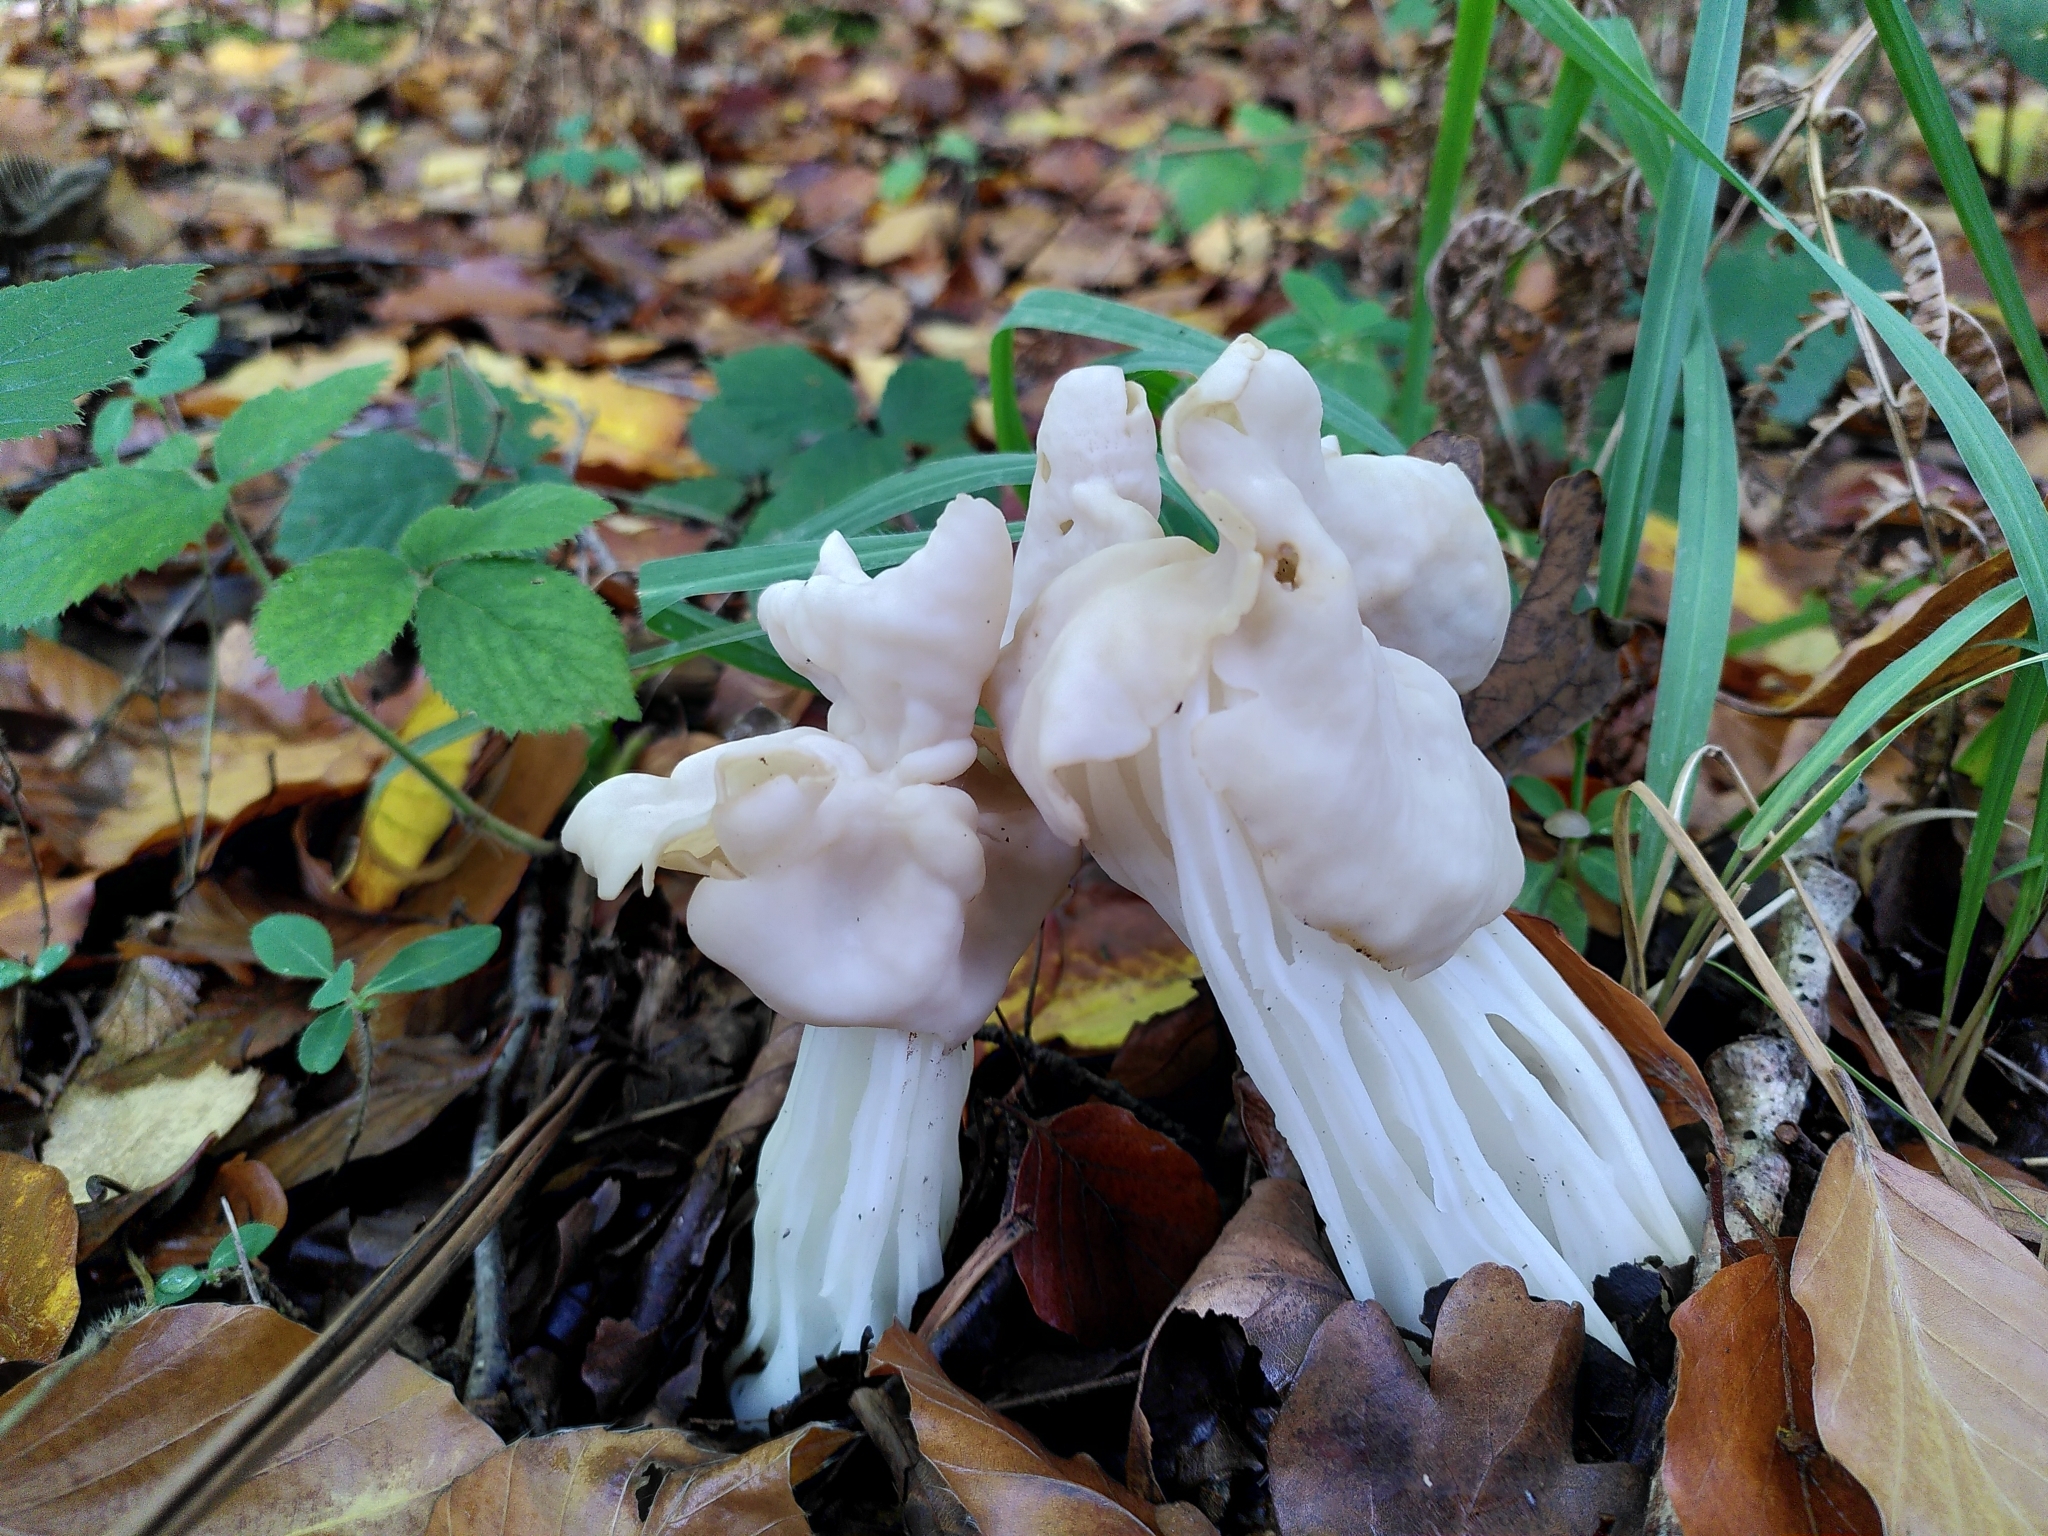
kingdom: Fungi
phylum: Ascomycota
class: Pezizomycetes
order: Pezizales
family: Helvellaceae
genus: Helvella
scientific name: Helvella crispa
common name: White saddle
